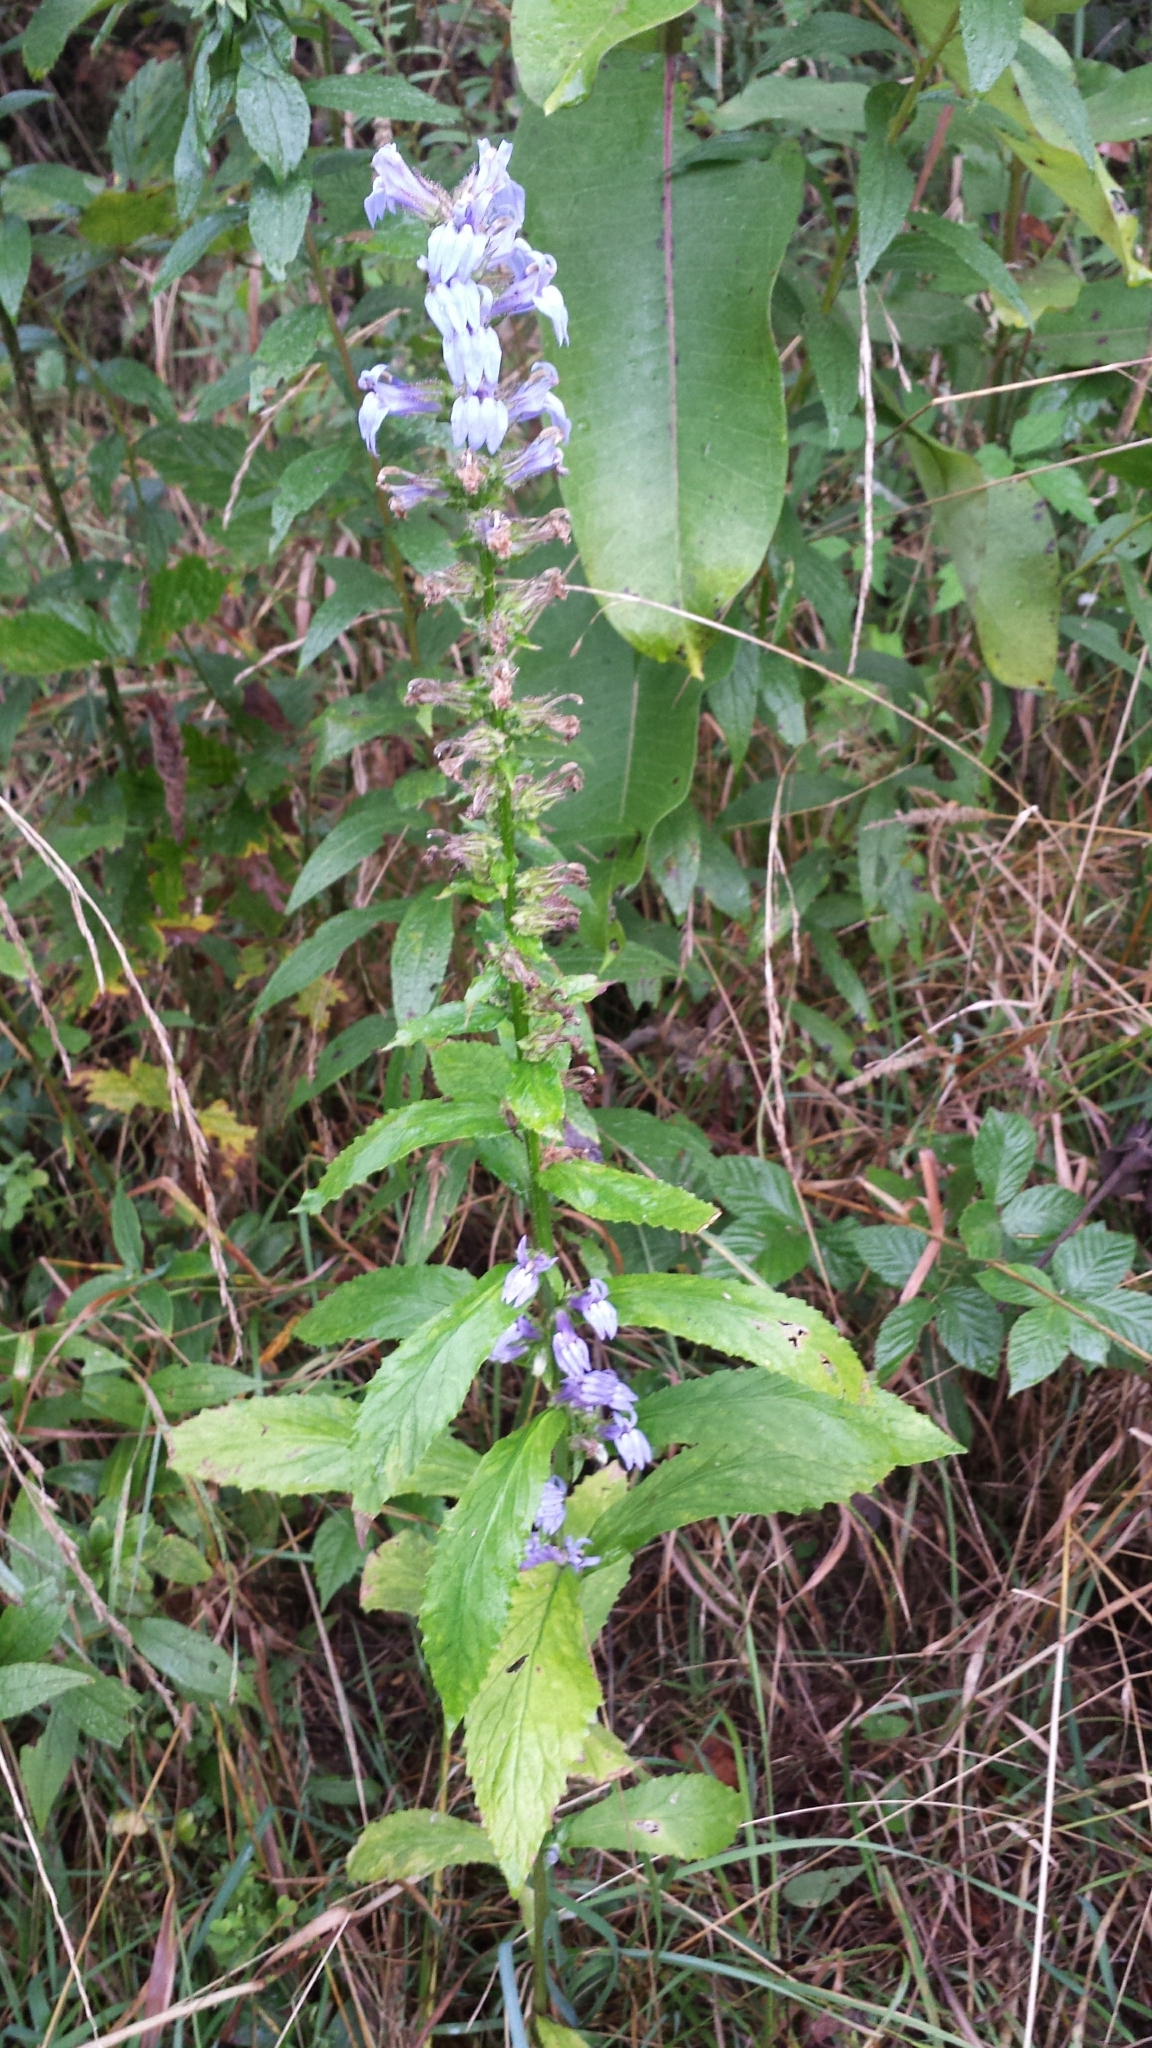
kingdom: Plantae
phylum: Tracheophyta
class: Magnoliopsida
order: Asterales
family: Campanulaceae
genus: Lobelia
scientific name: Lobelia siphilitica
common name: Great lobelia
